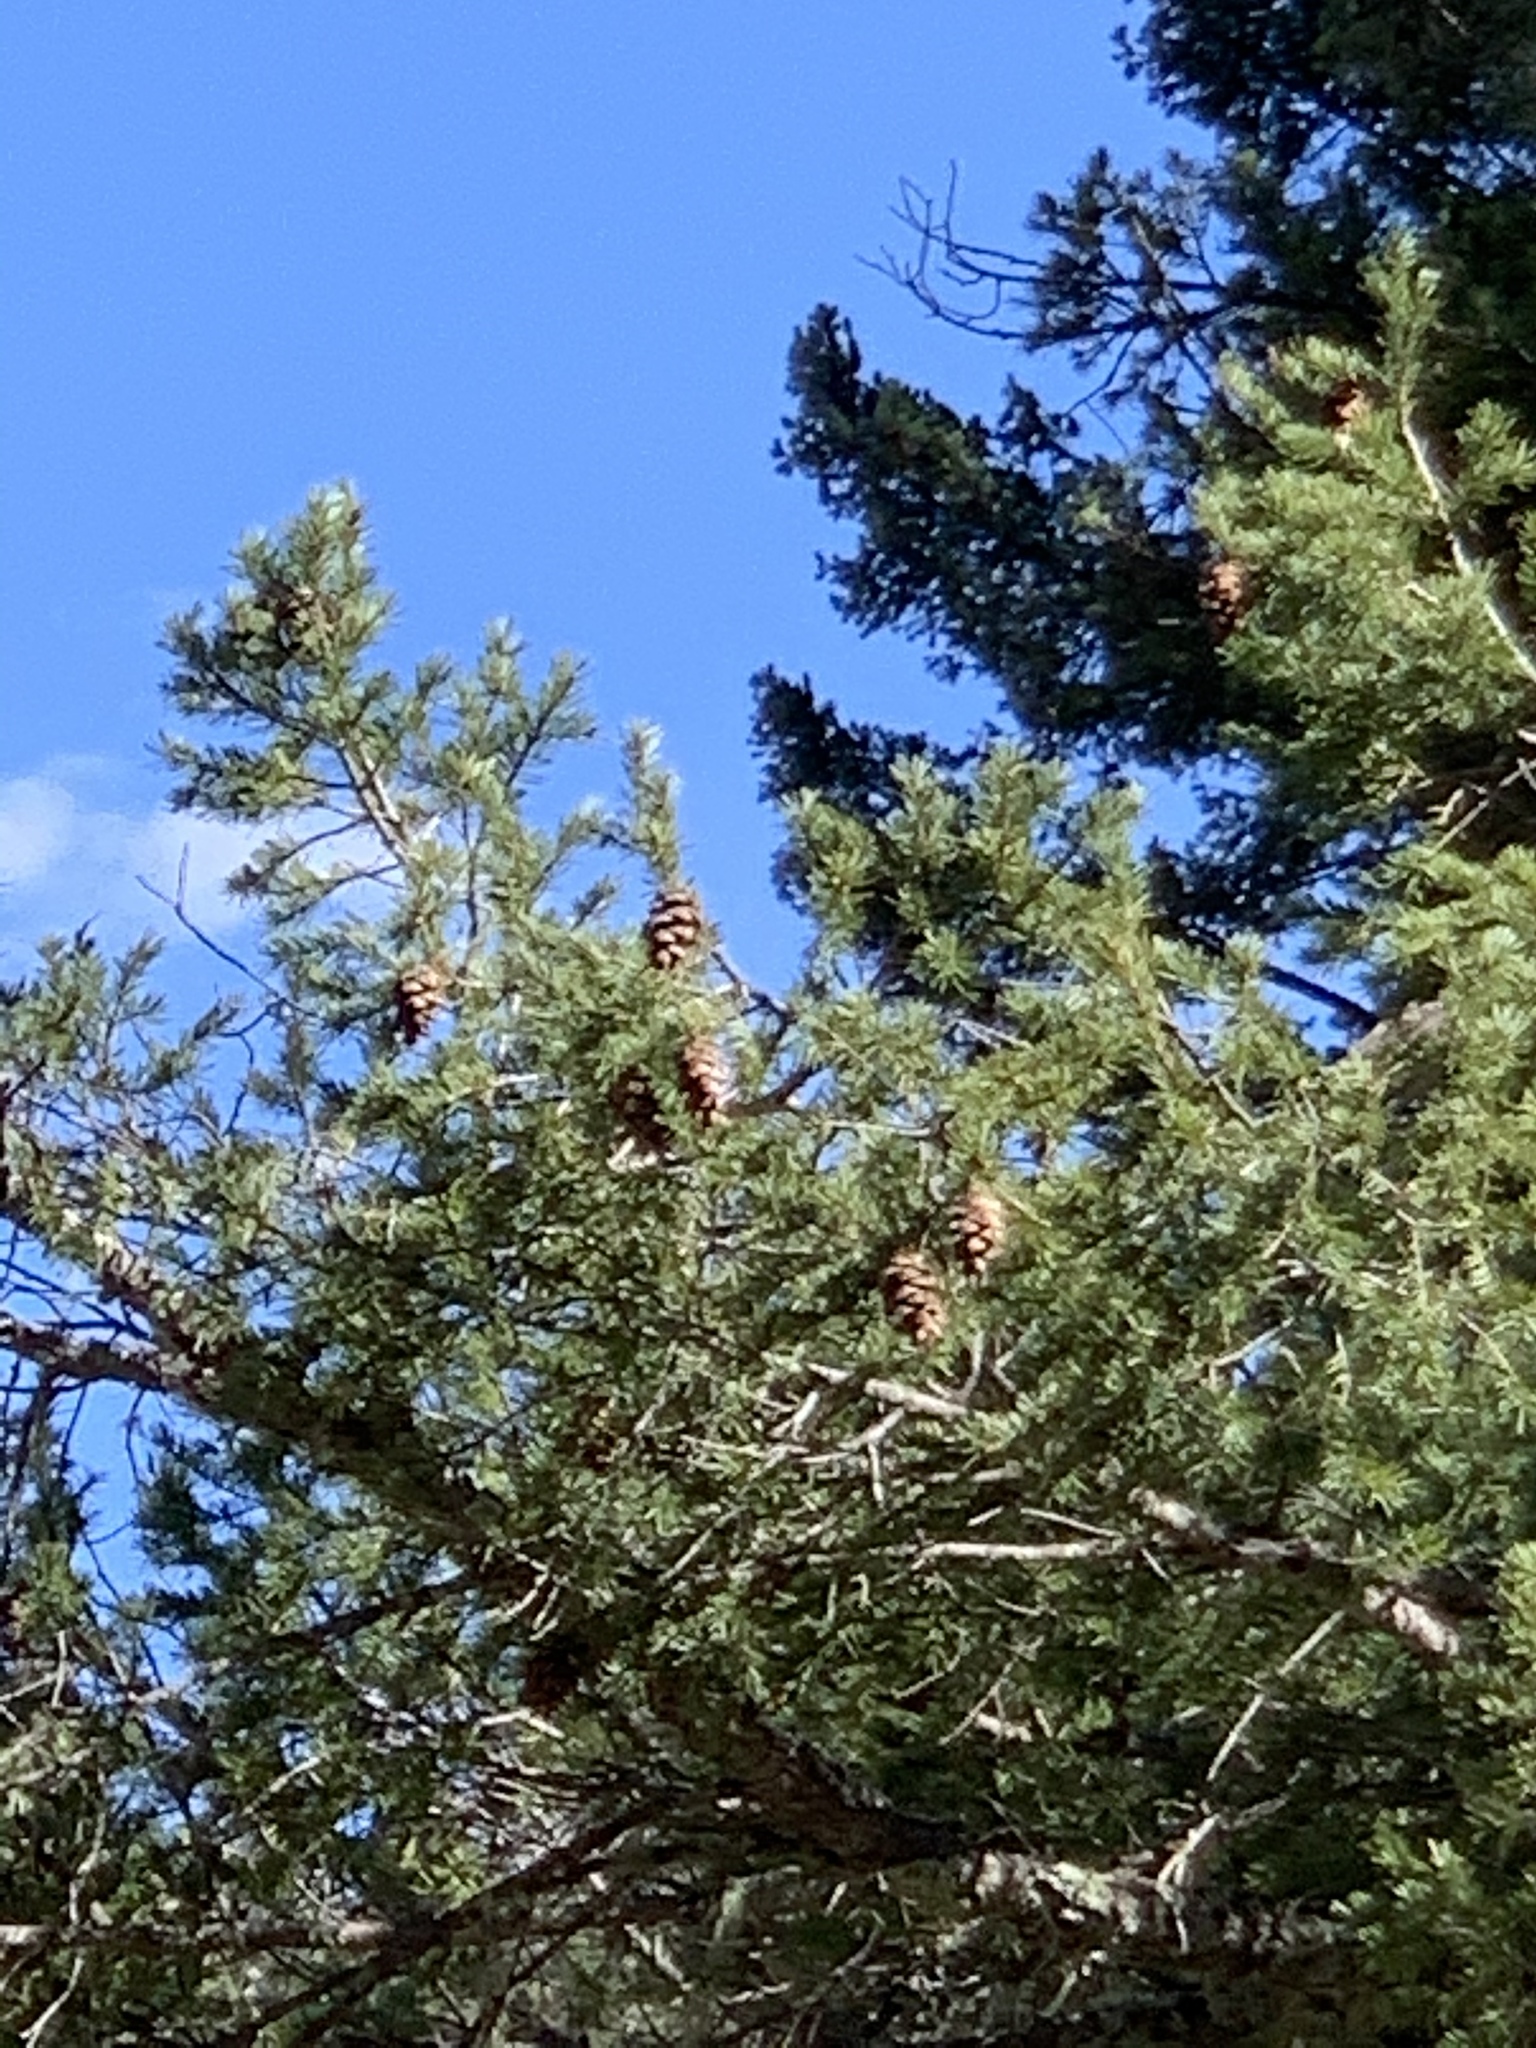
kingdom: Plantae
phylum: Tracheophyta
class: Pinopsida
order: Pinales
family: Pinaceae
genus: Pseudotsuga
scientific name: Pseudotsuga menziesii
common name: Douglas fir
